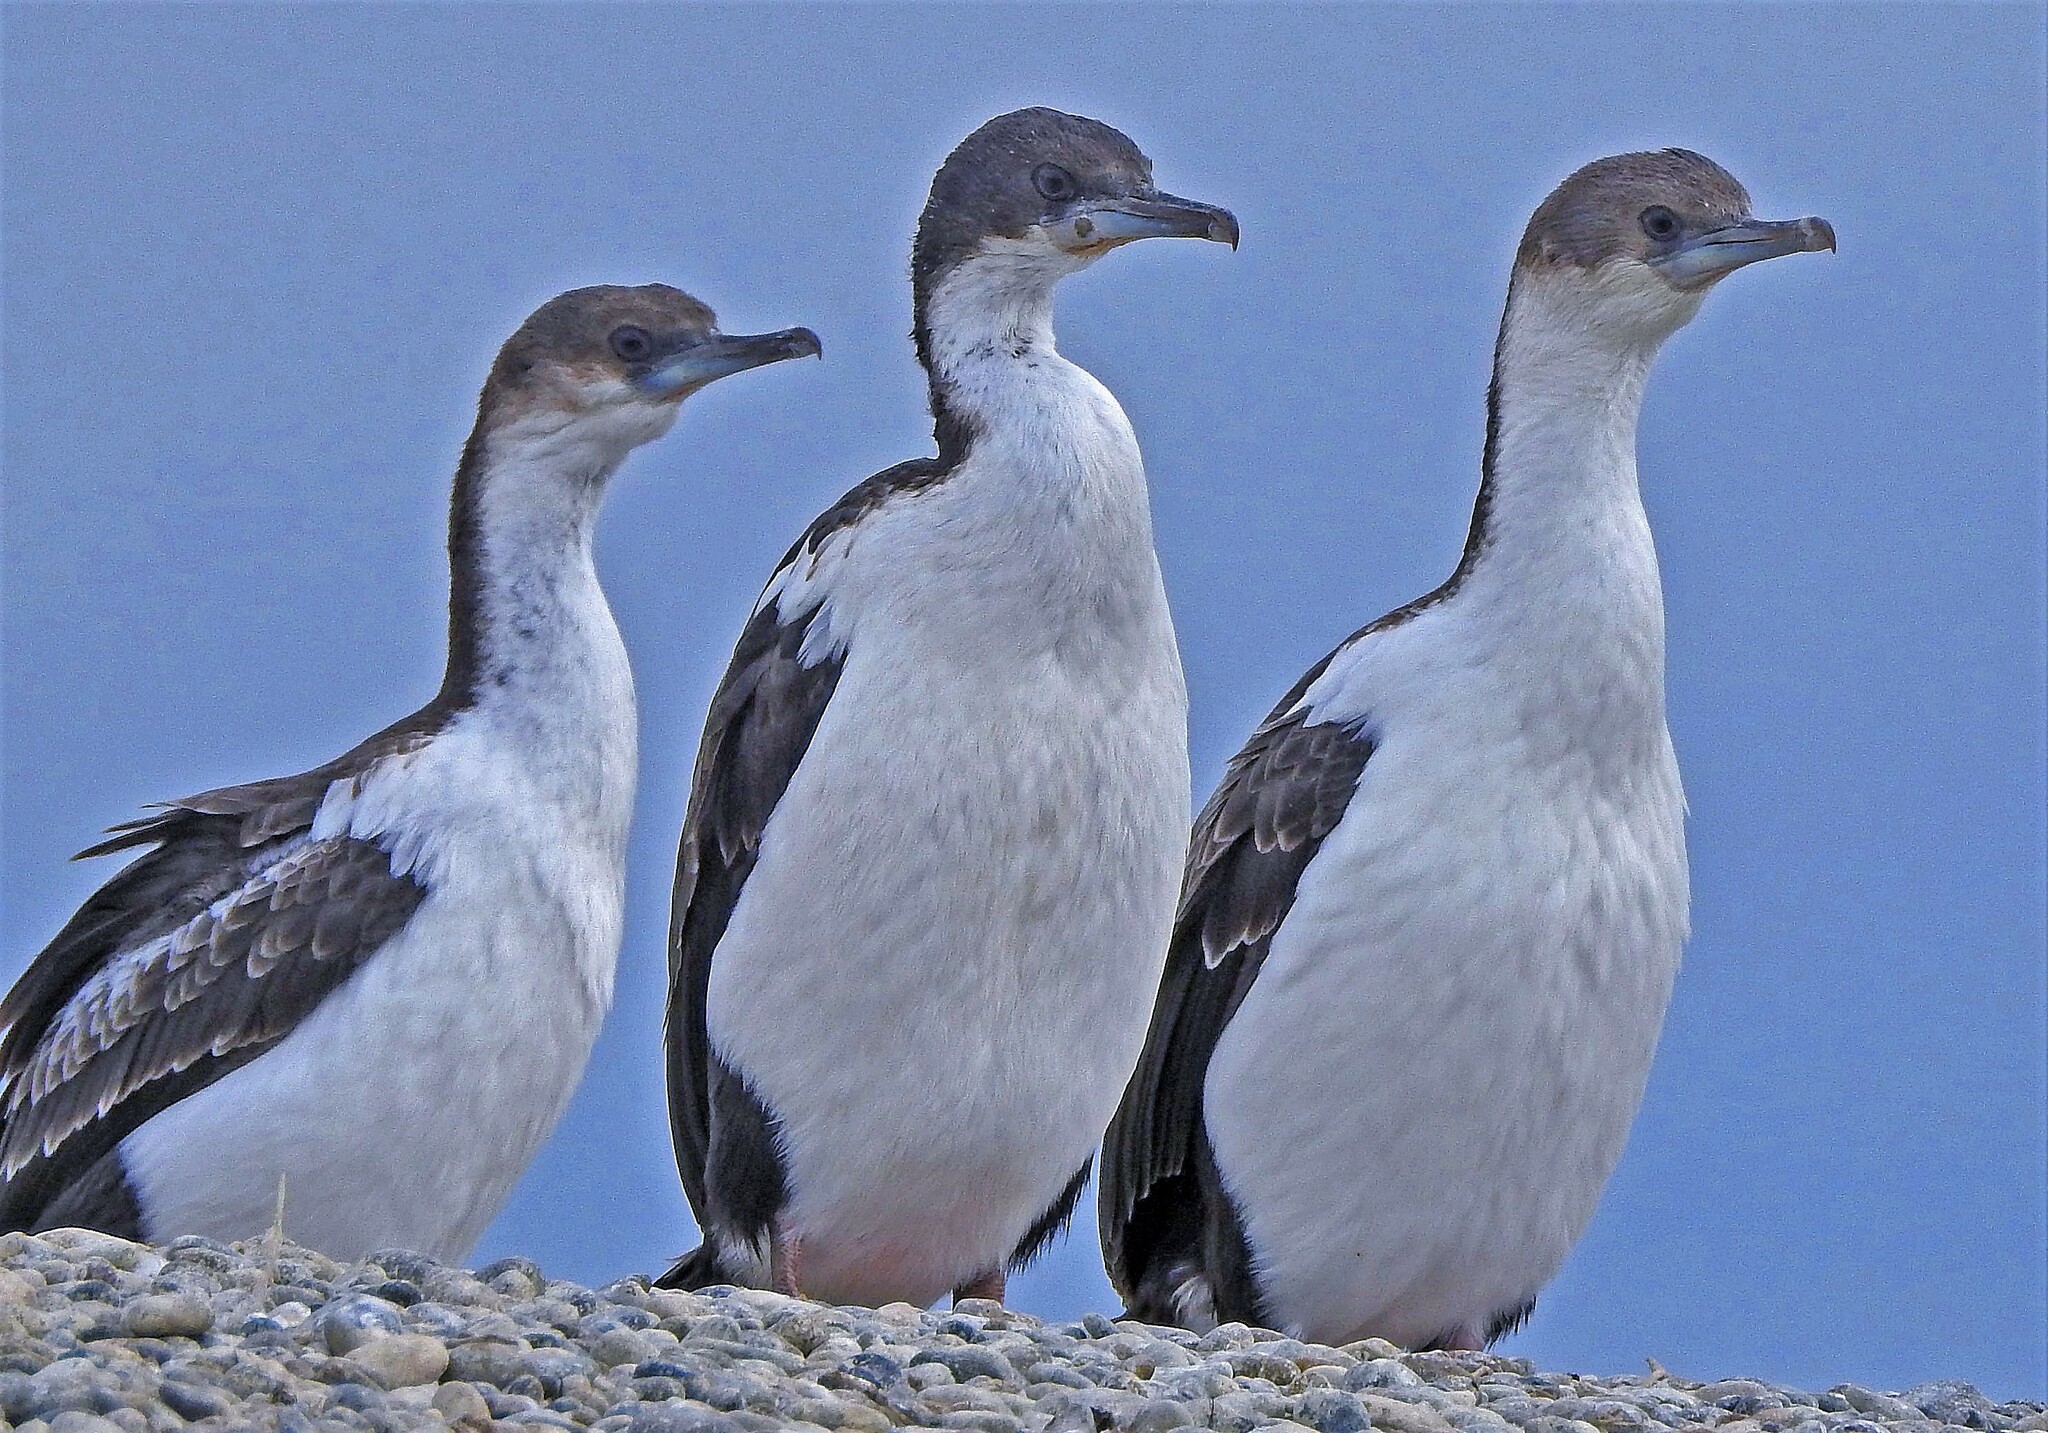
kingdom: Animalia
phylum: Chordata
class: Aves
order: Suliformes
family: Phalacrocoracidae
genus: Leucocarbo
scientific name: Leucocarbo atriceps
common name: Imperial shag
